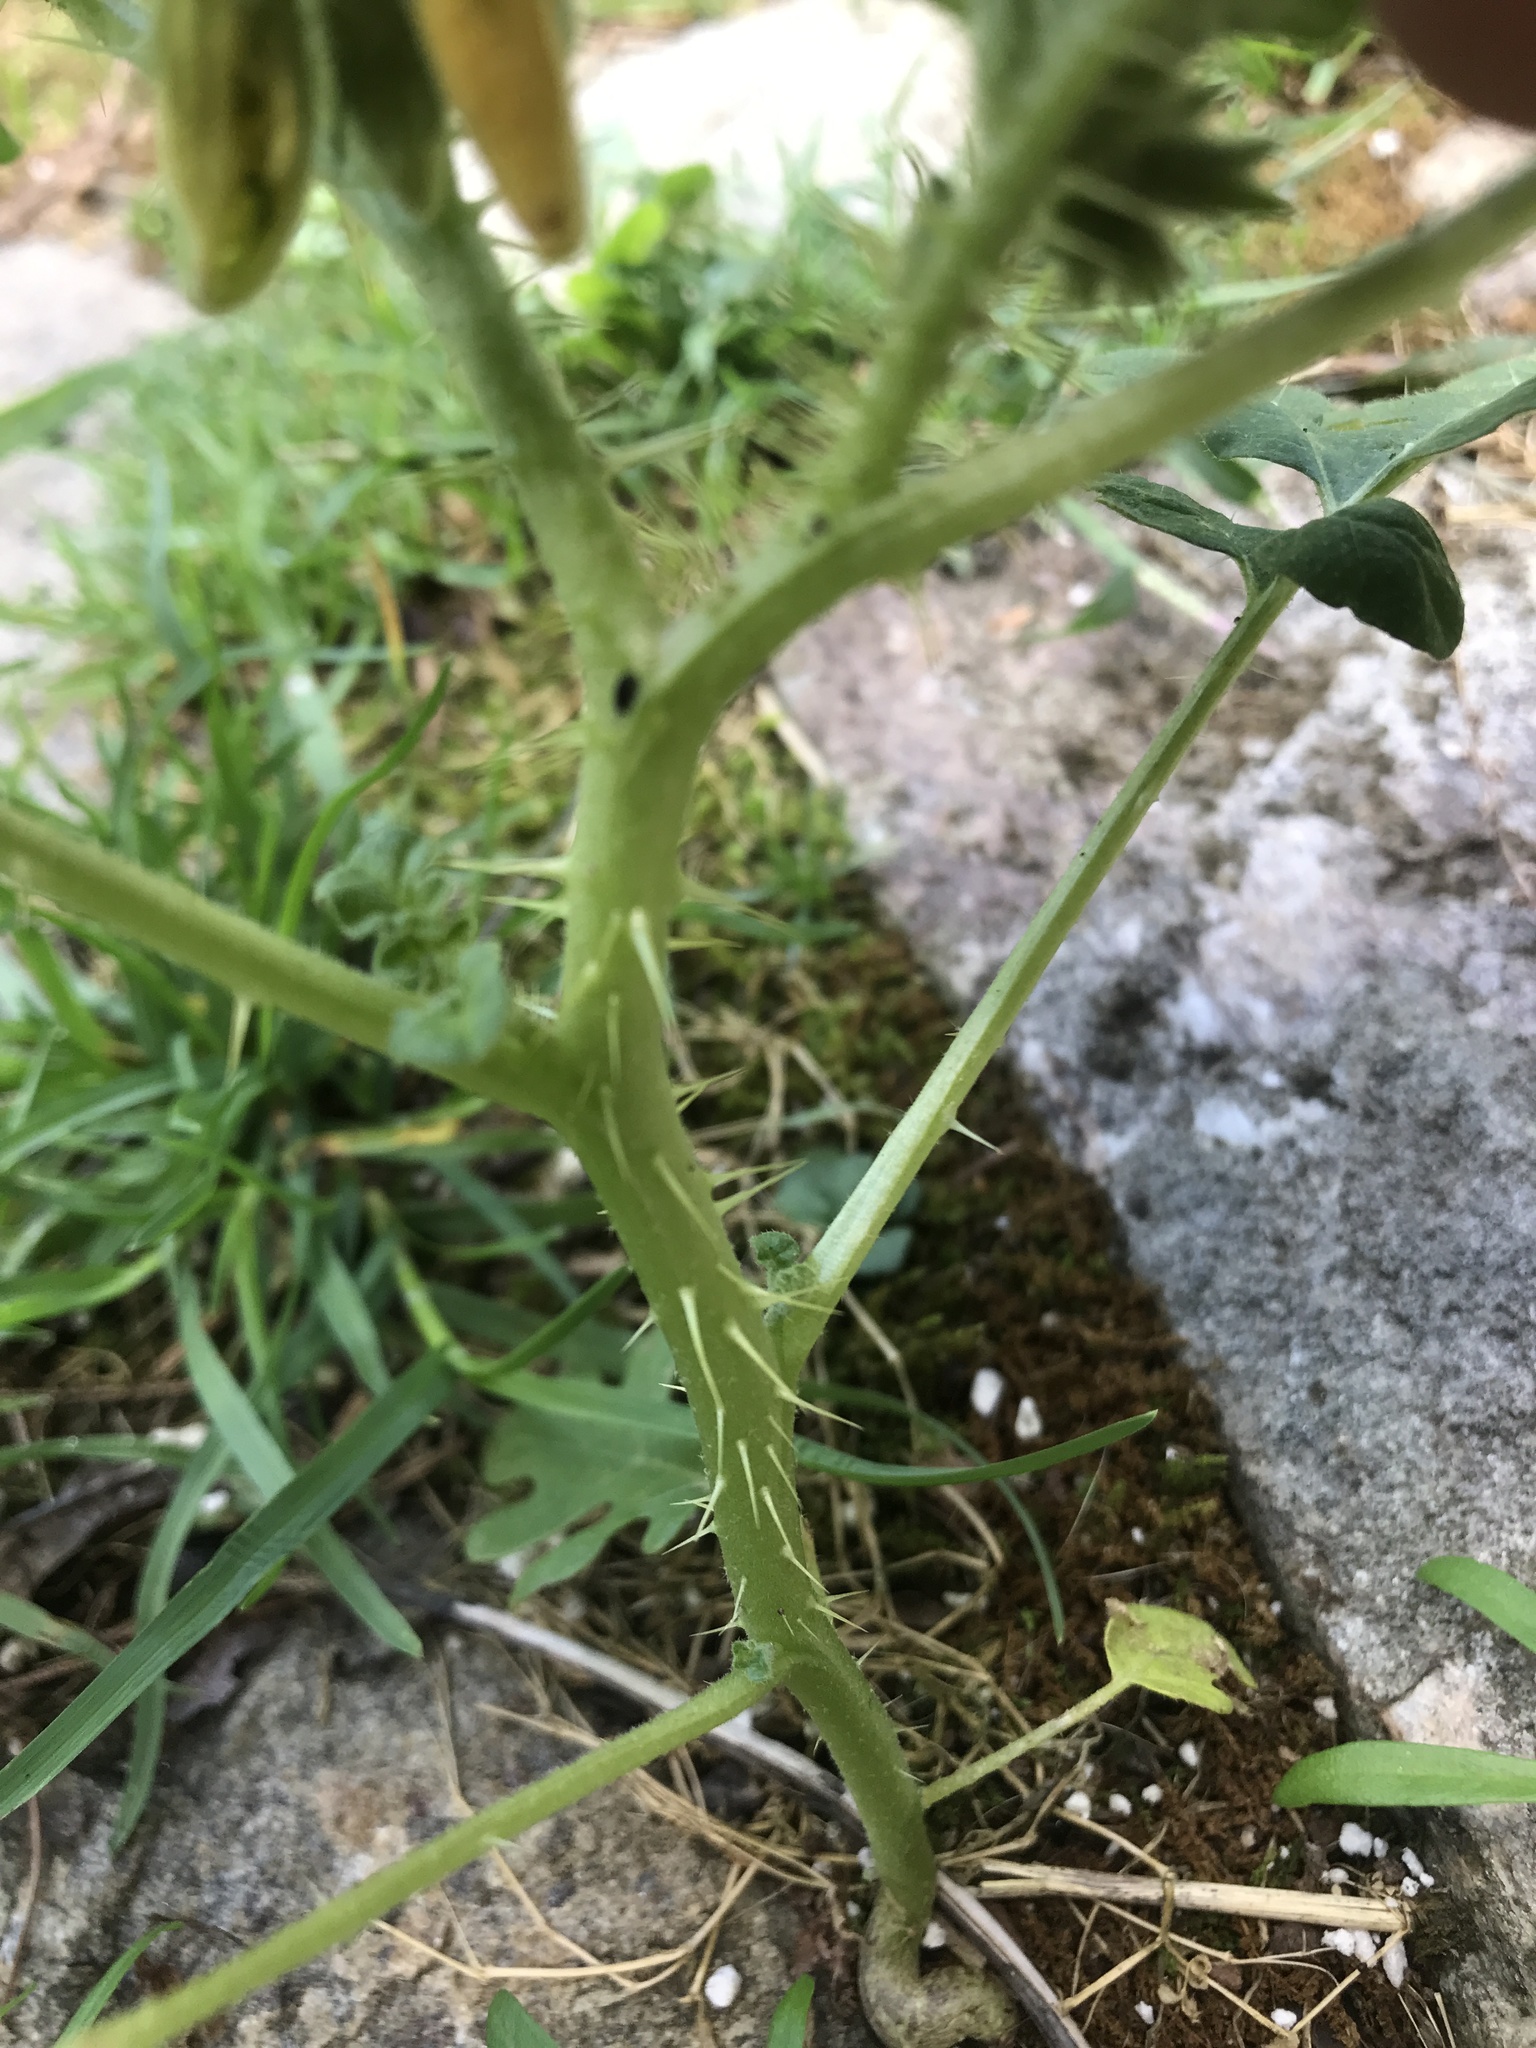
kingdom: Plantae
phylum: Tracheophyta
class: Magnoliopsida
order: Solanales
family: Solanaceae
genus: Solanum
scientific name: Solanum angustifolium
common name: Buffalobur nightshade
